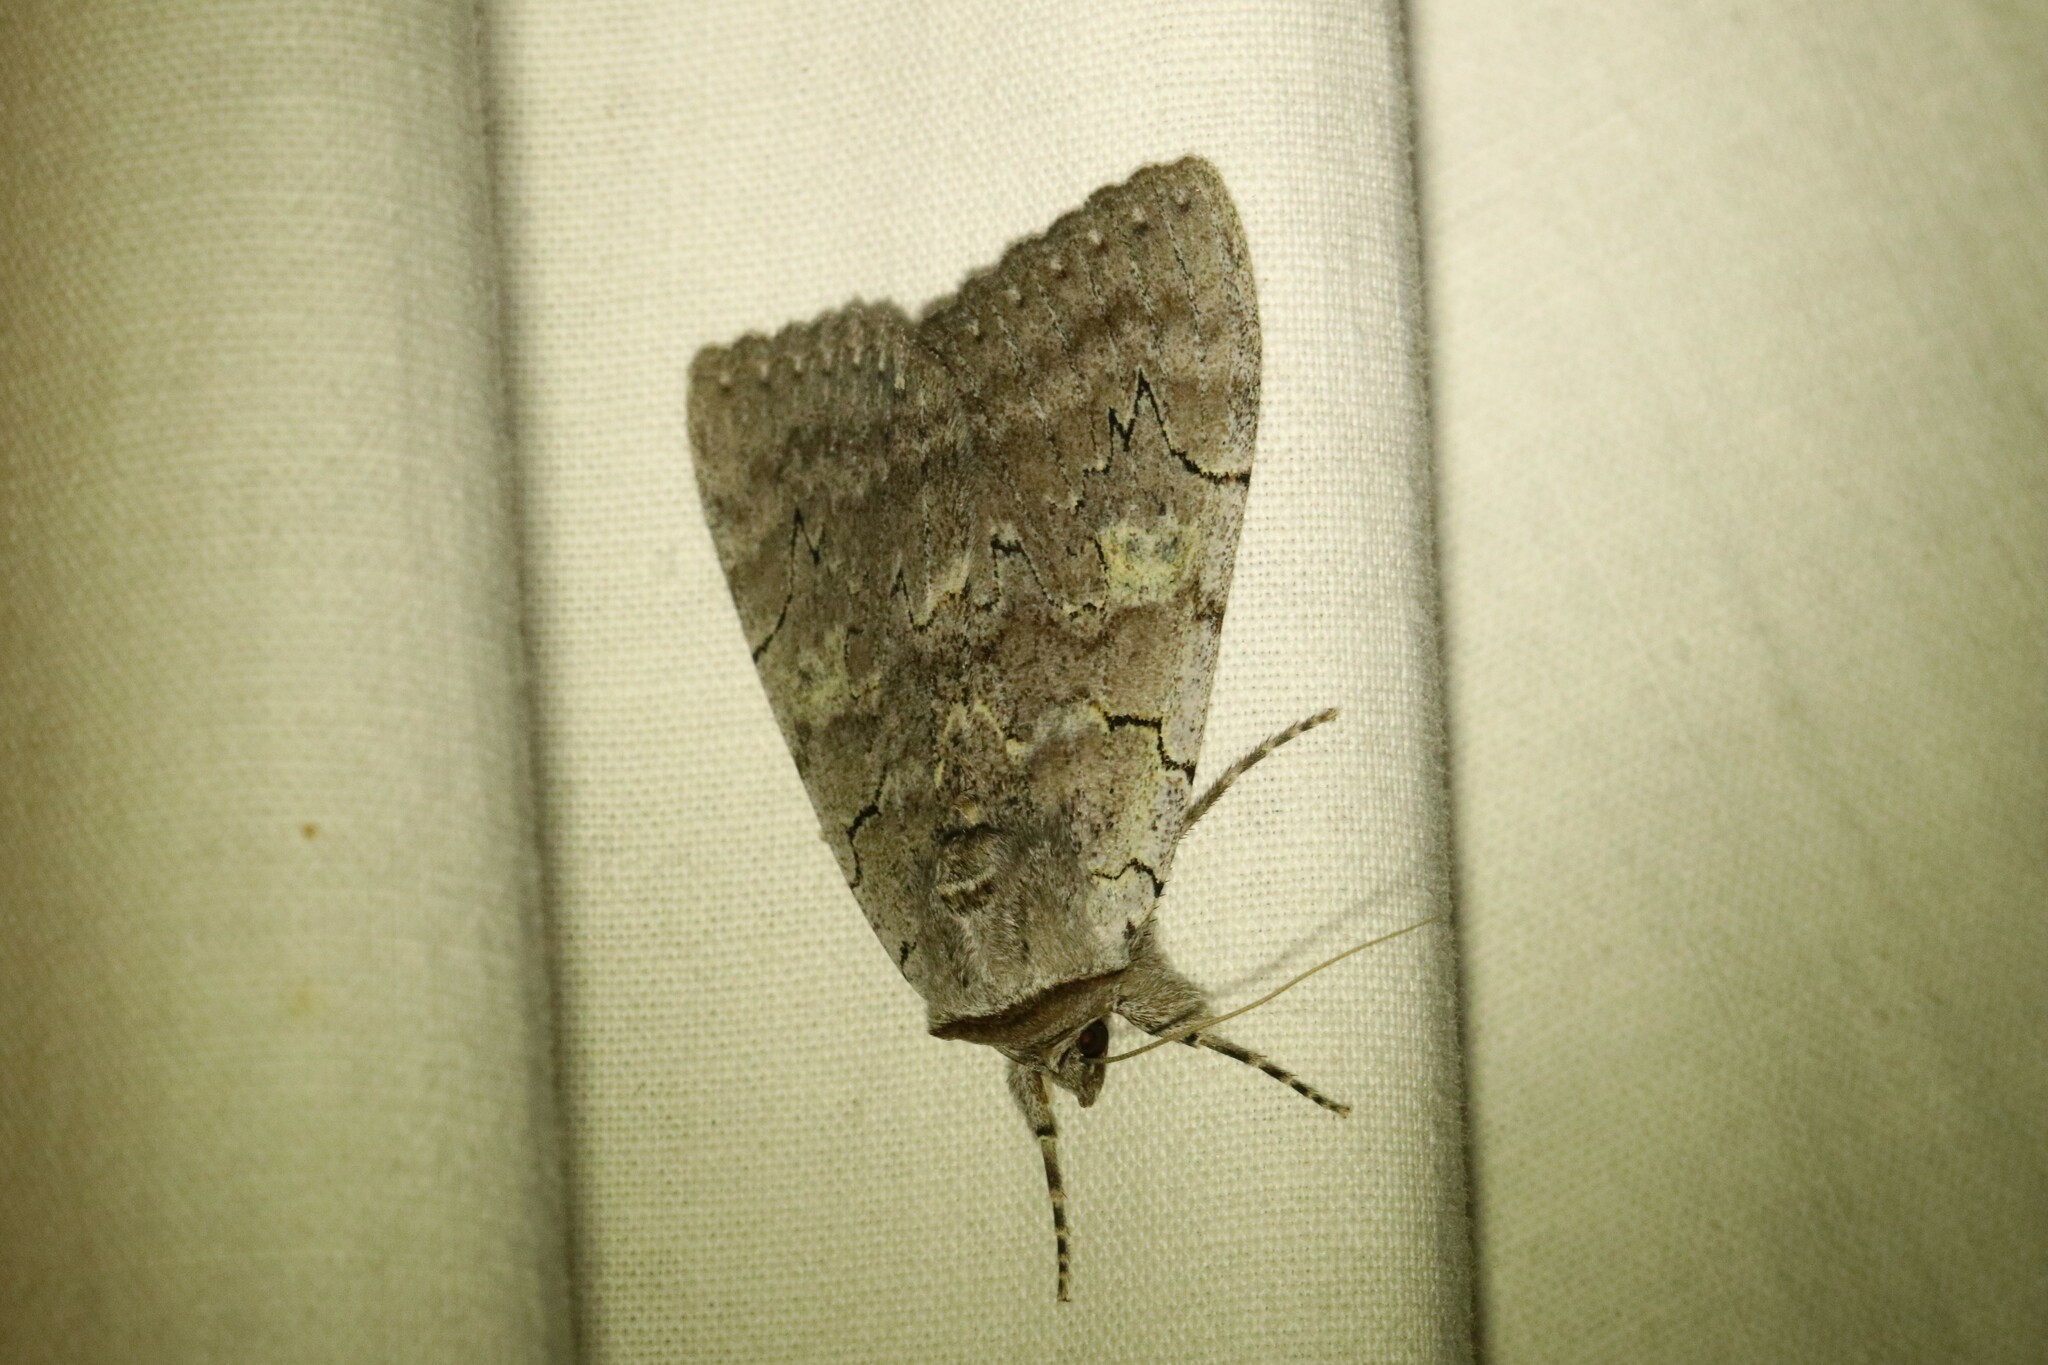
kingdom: Animalia
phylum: Arthropoda
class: Insecta
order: Lepidoptera
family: Erebidae
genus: Catocala
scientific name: Catocala concumbens
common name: Pink underwing
